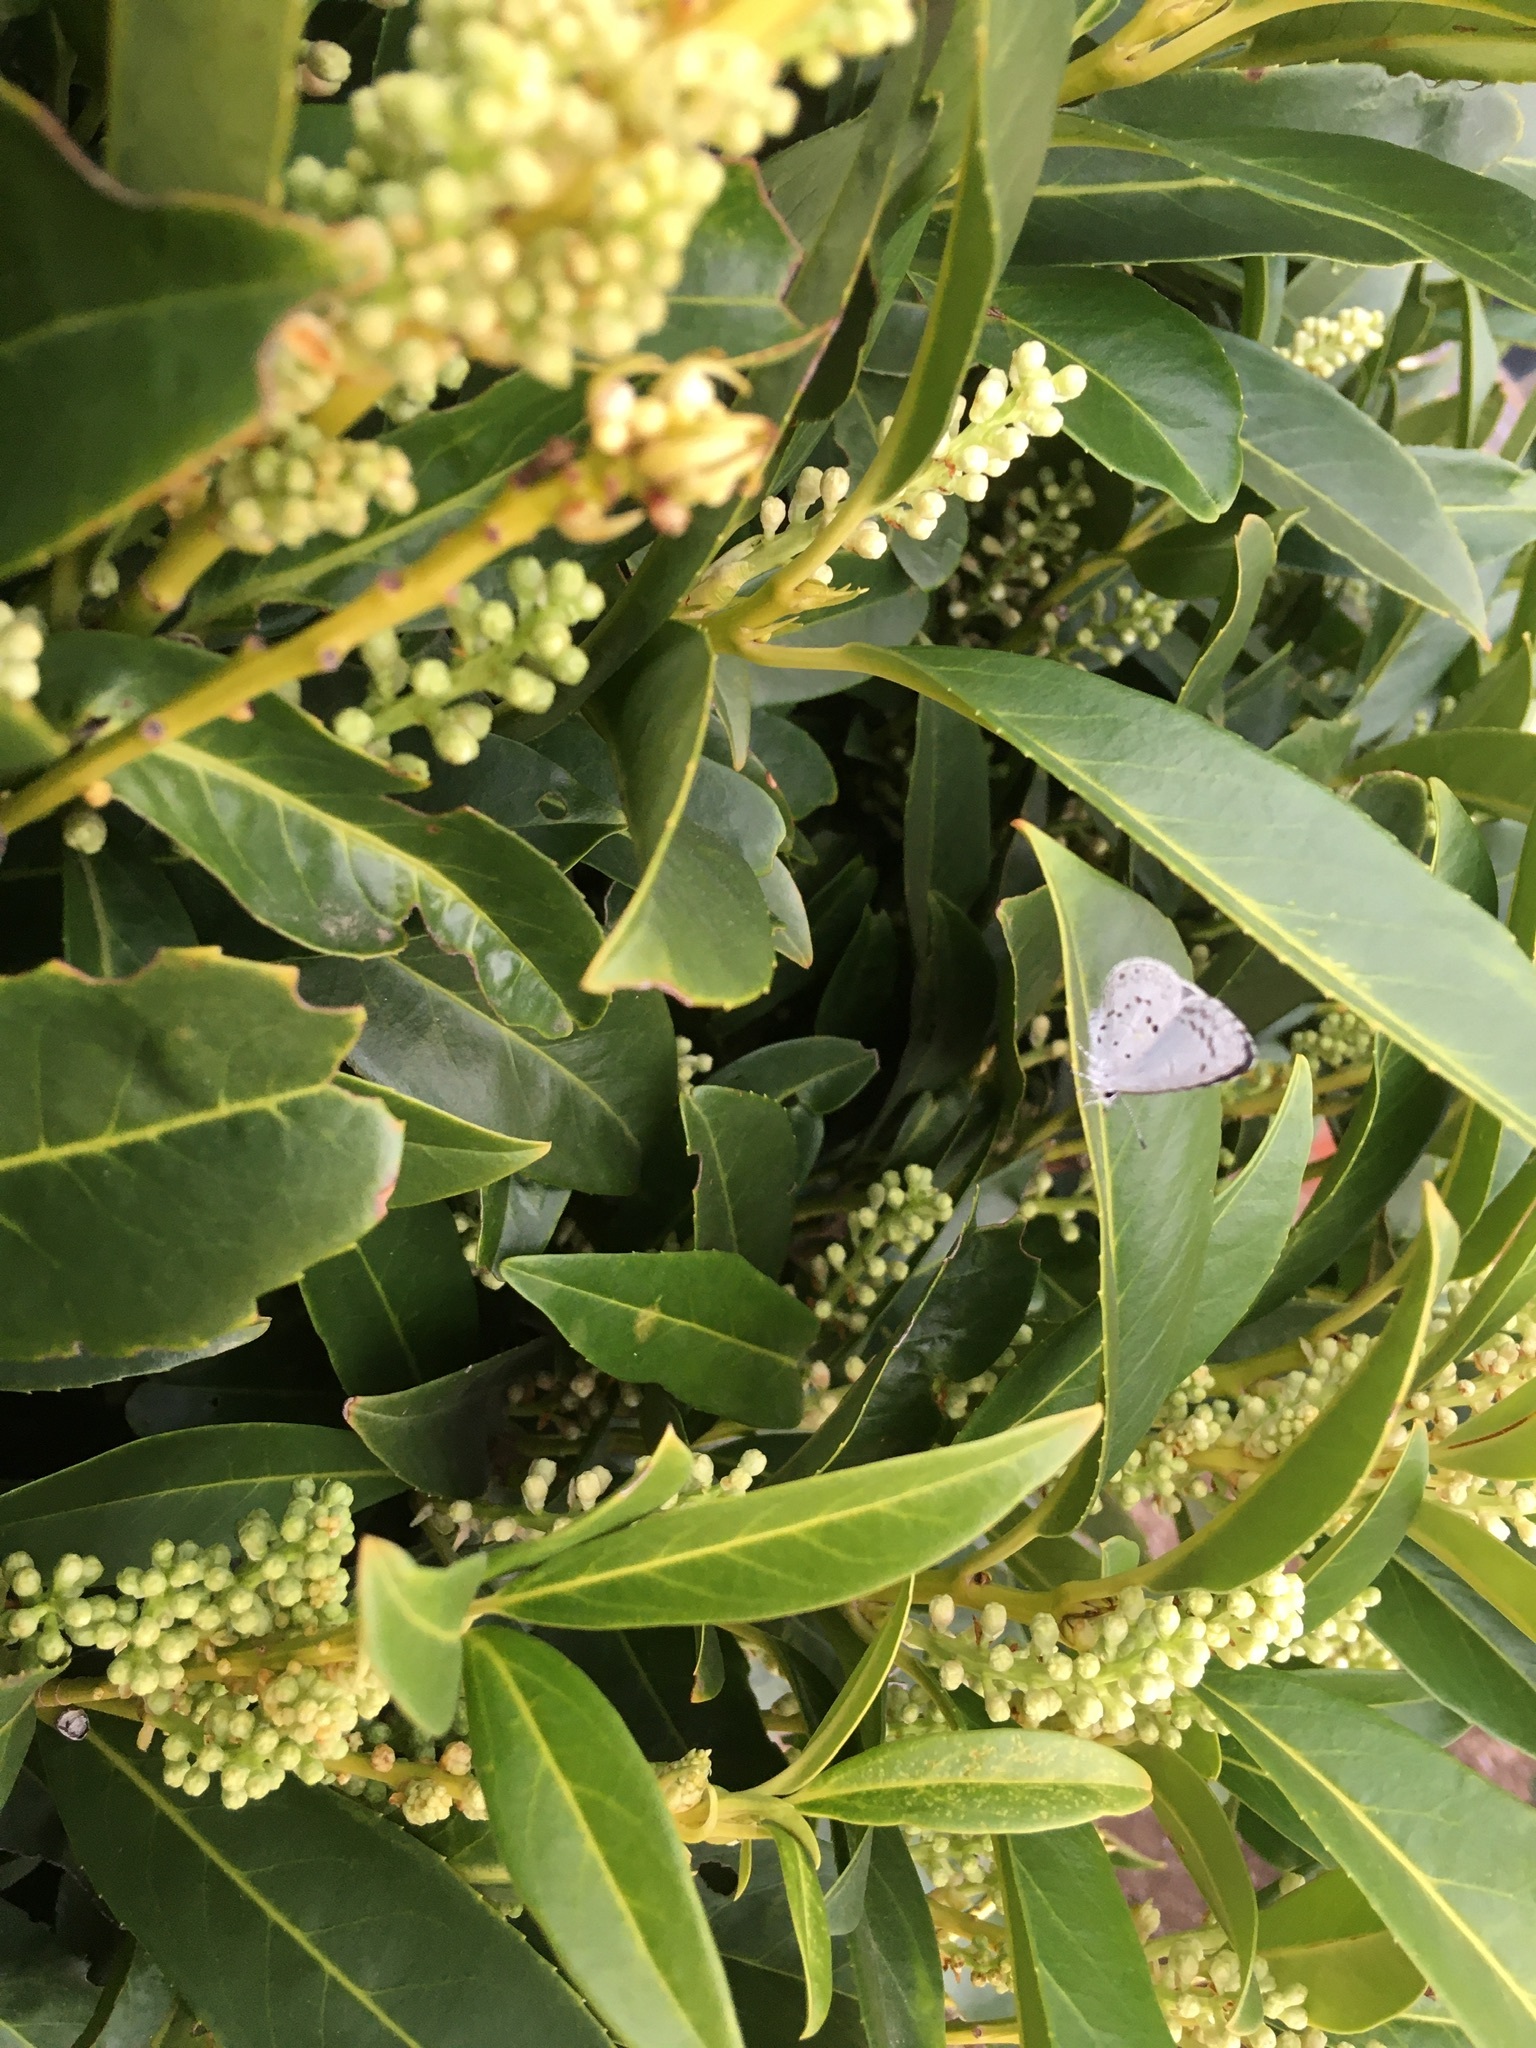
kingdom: Animalia
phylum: Arthropoda
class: Insecta
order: Lepidoptera
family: Lycaenidae
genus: Cyaniris
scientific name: Cyaniris neglecta
